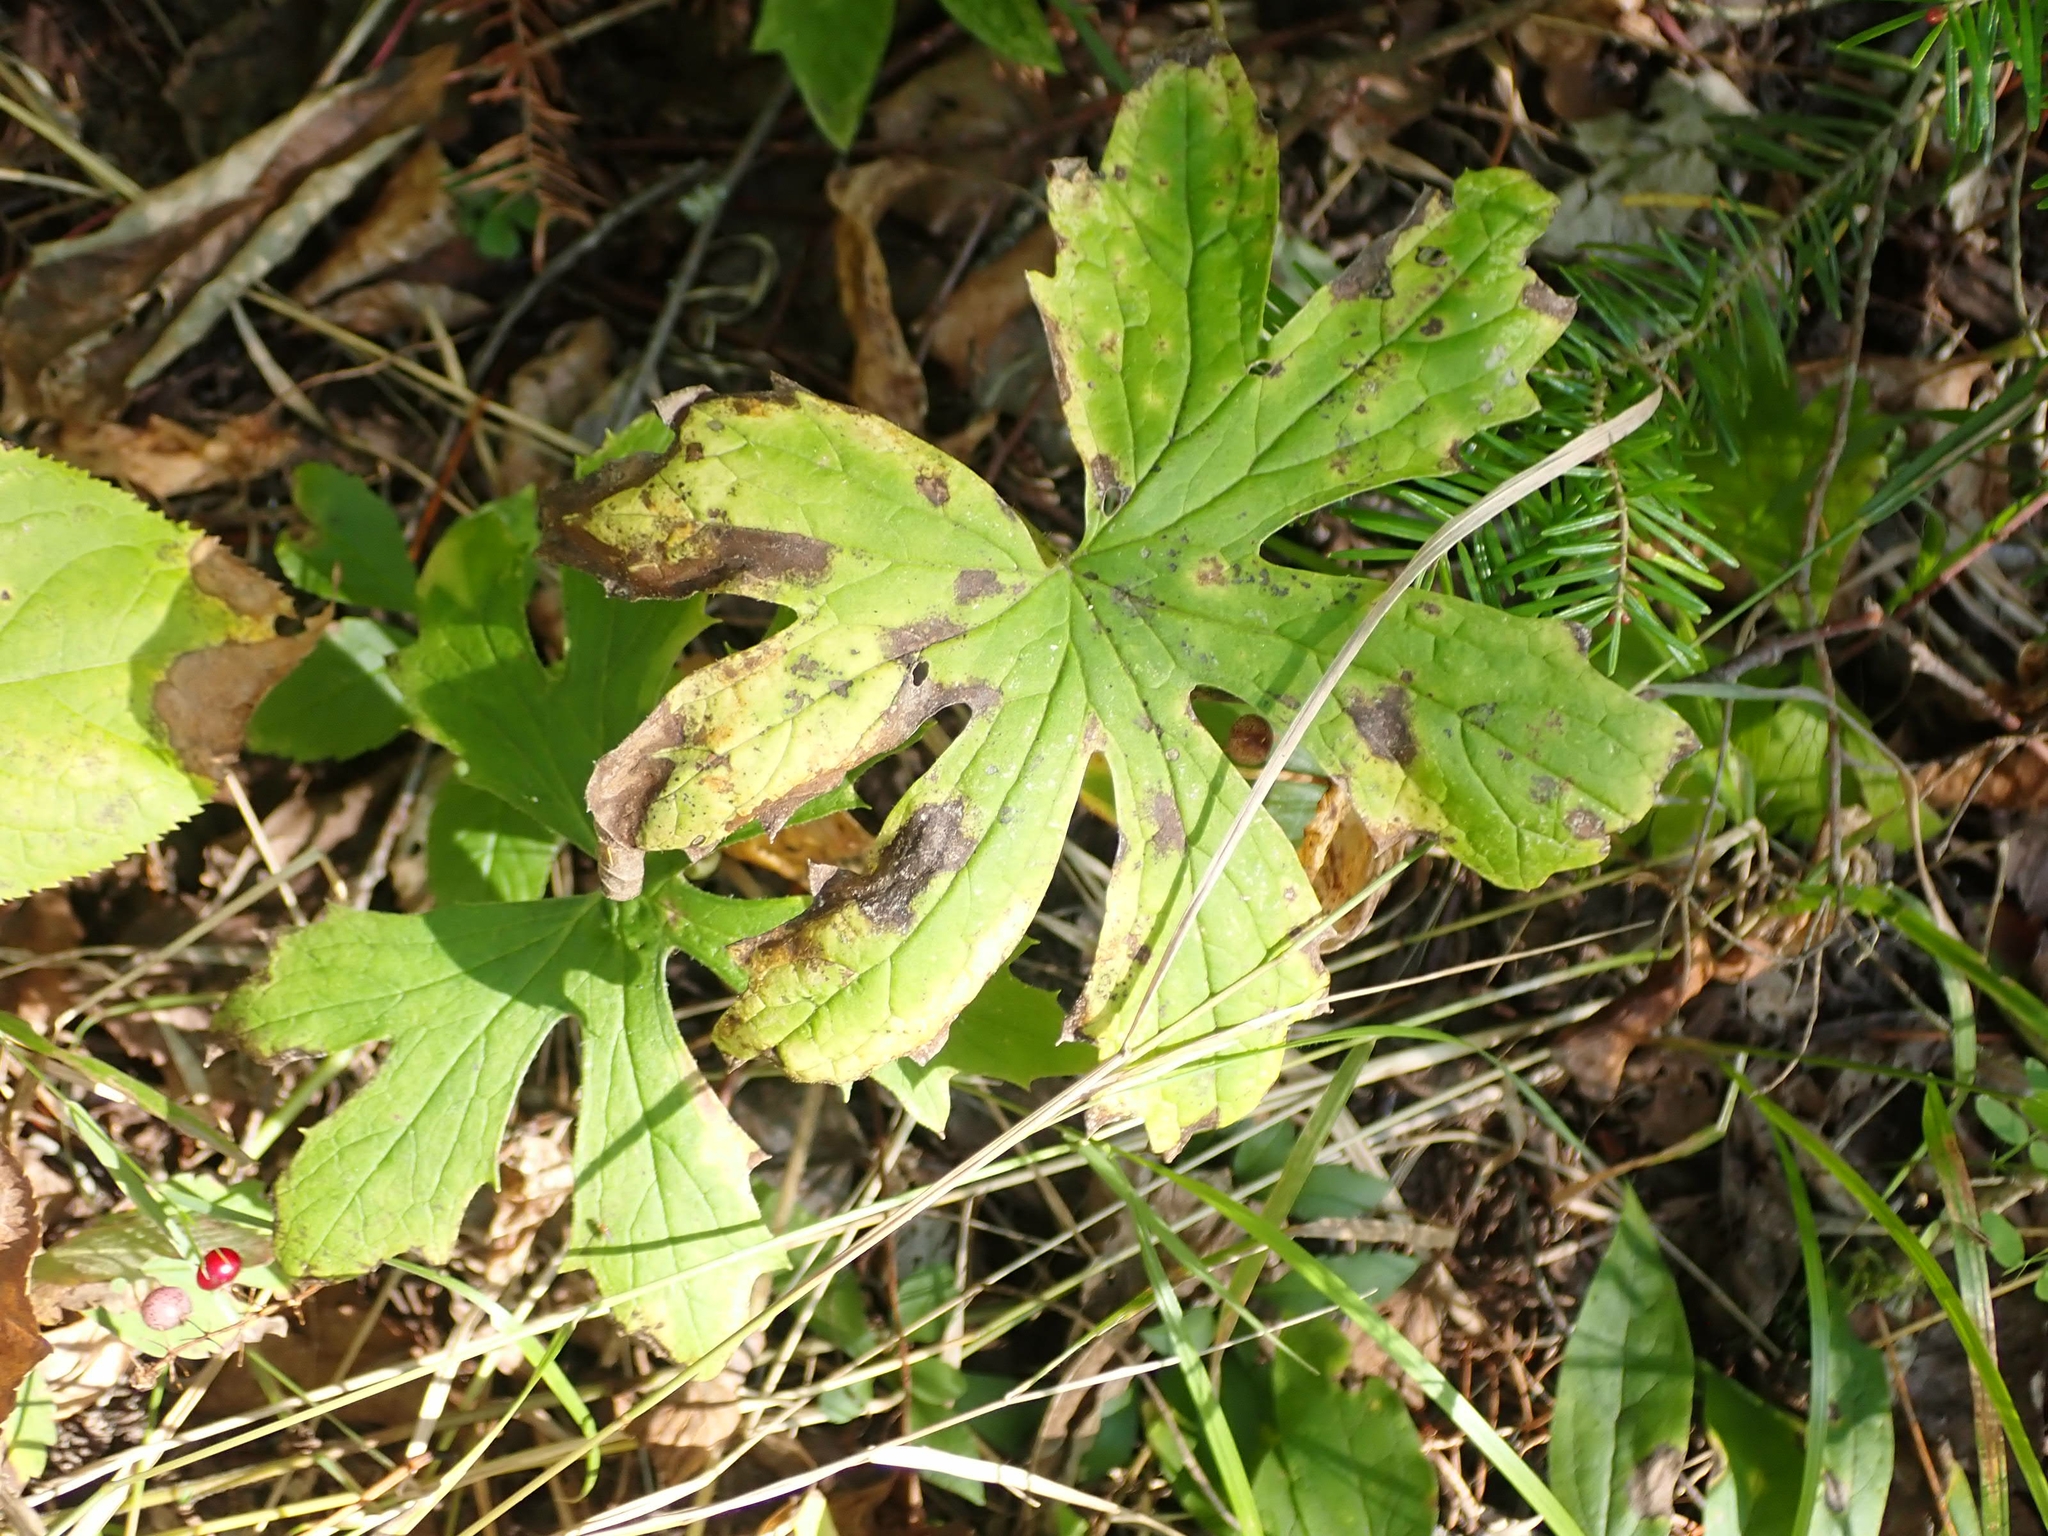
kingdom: Plantae
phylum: Tracheophyta
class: Magnoliopsida
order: Asterales
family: Asteraceae
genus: Petasites
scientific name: Petasites frigidus
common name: Arctic butterbur
